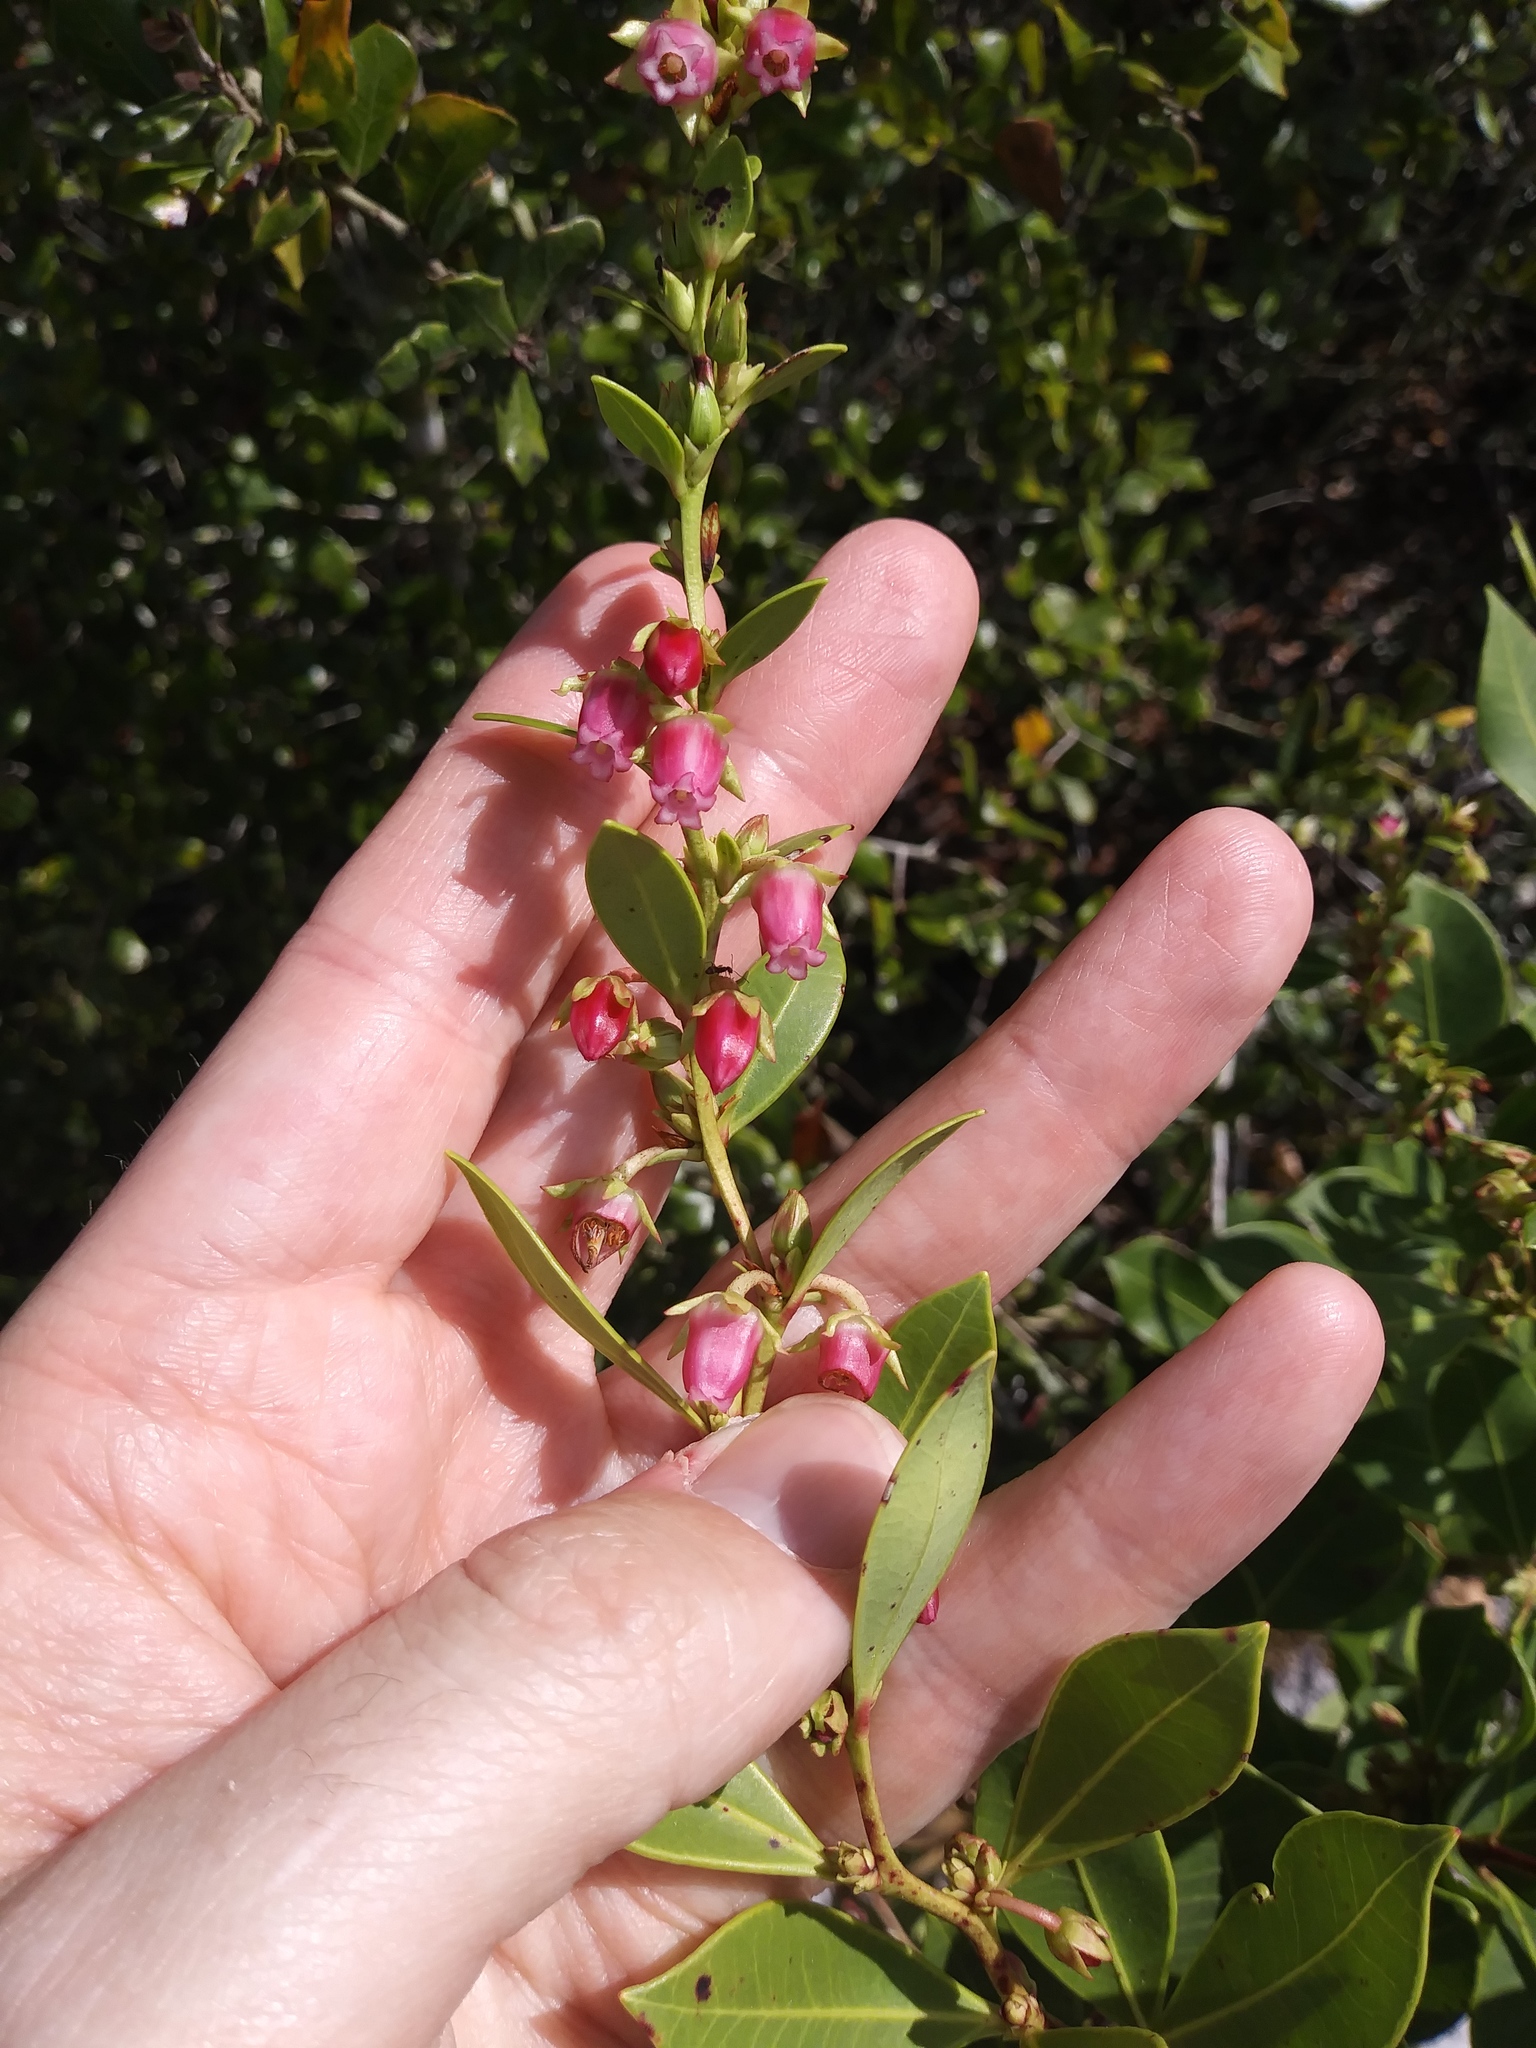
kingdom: Plantae
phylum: Tracheophyta
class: Magnoliopsida
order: Ericales
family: Ericaceae
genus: Lyonia
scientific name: Lyonia lucida
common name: Fetterbush
